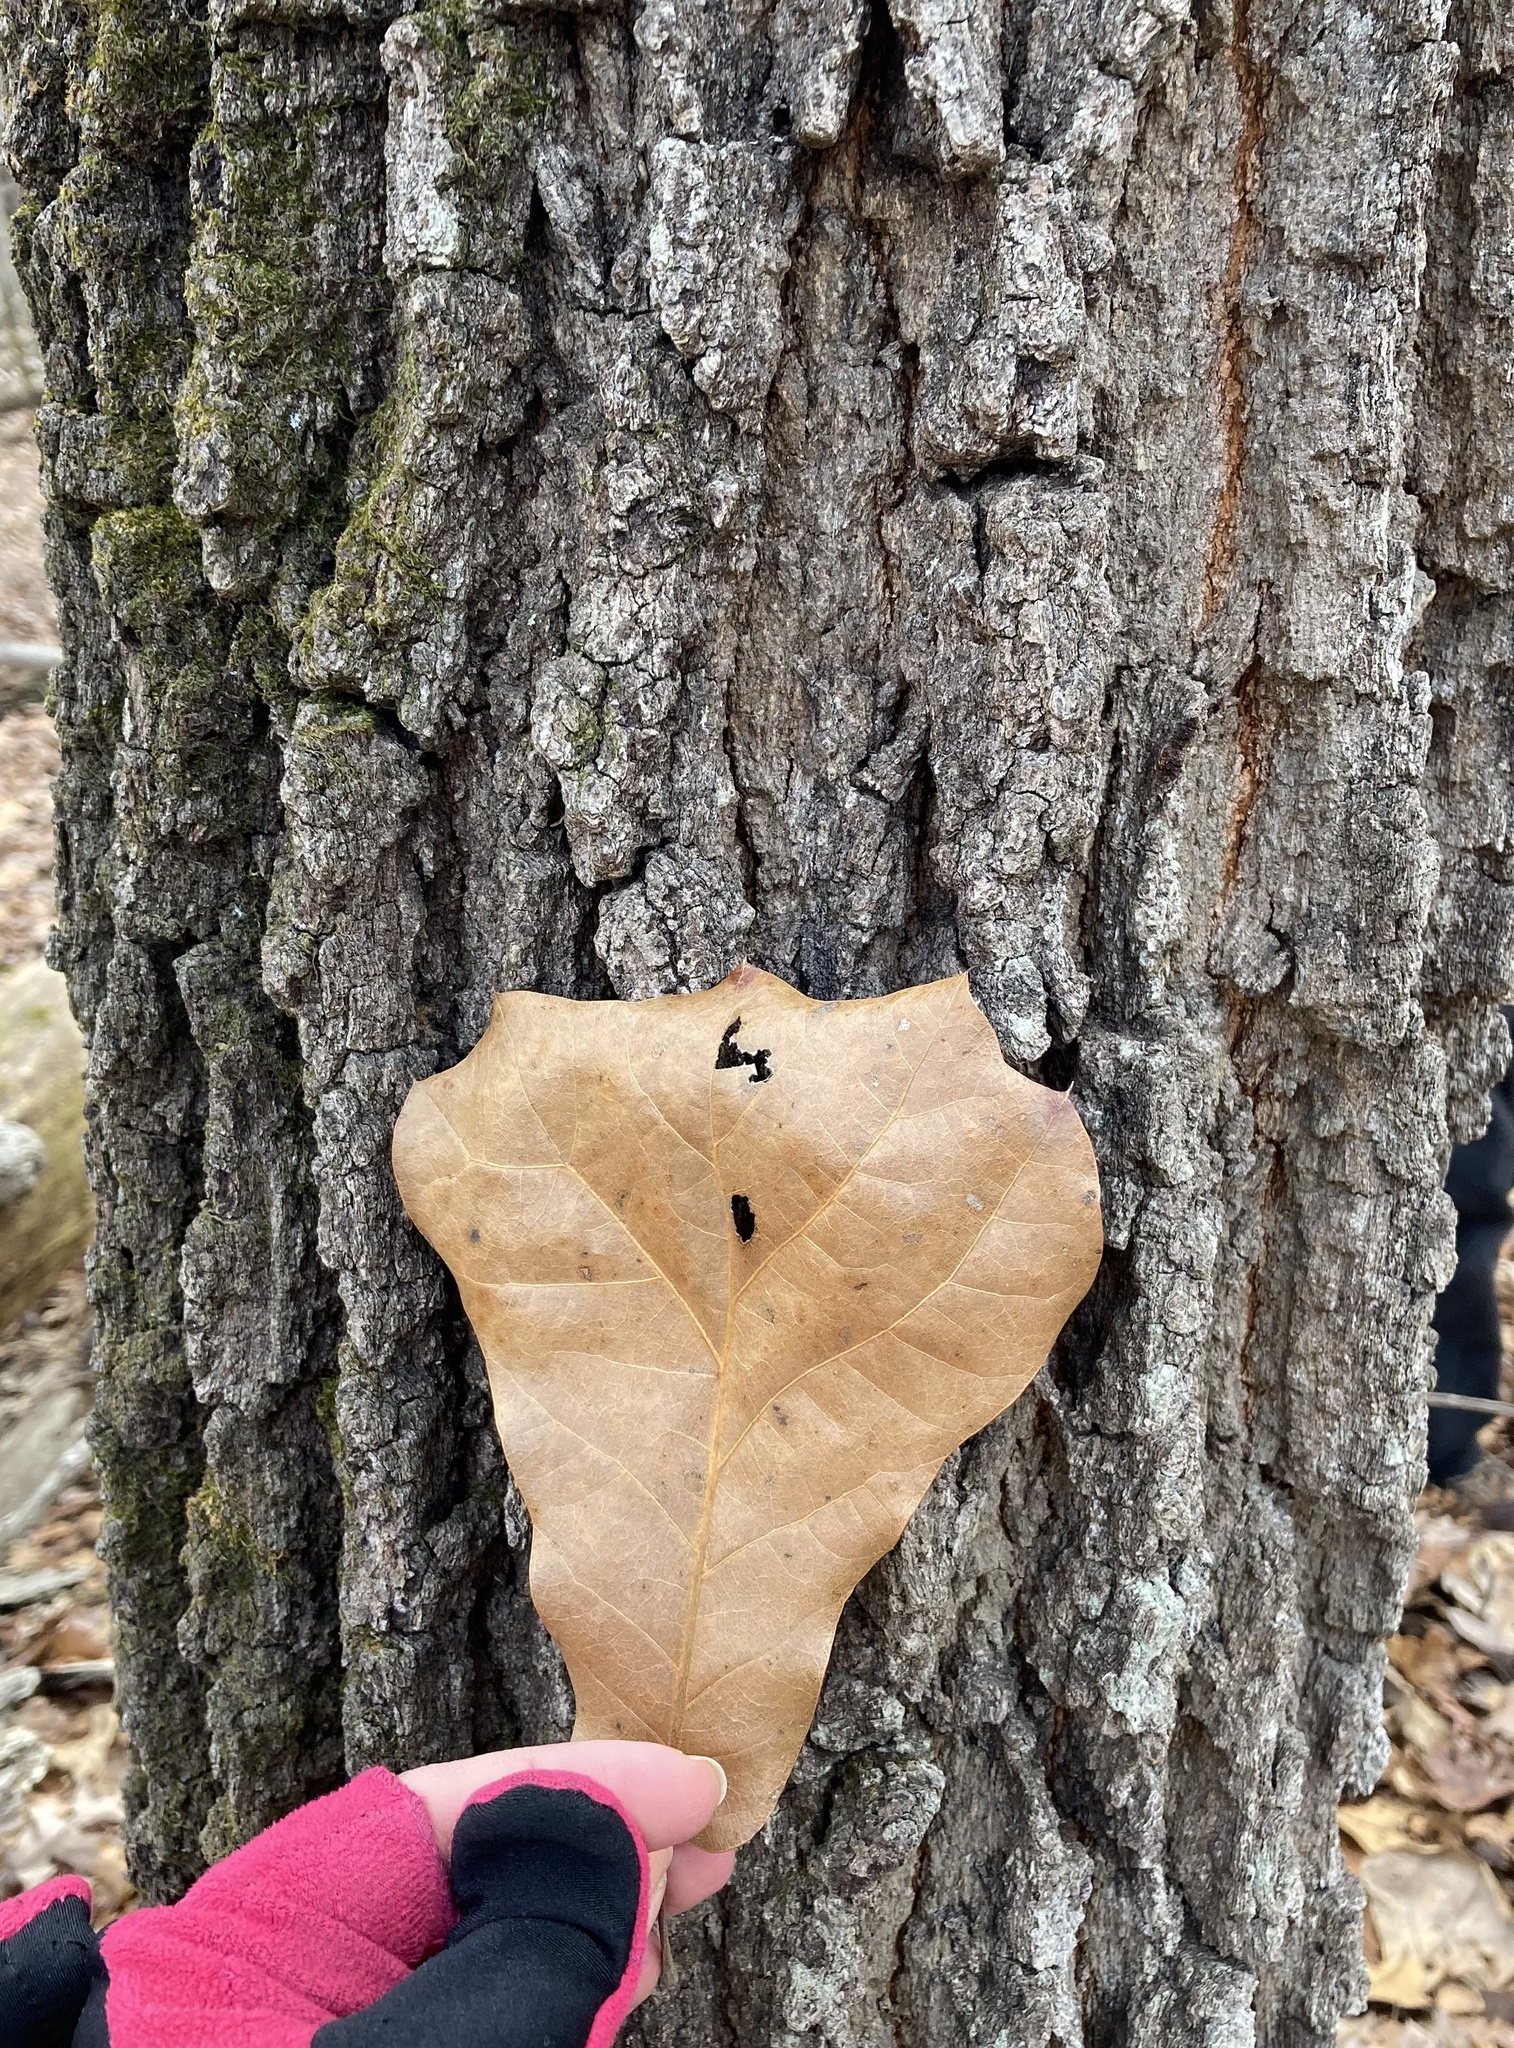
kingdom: Plantae
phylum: Tracheophyta
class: Magnoliopsida
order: Fagales
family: Fagaceae
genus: Quercus
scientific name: Quercus marilandica
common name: Blackjack oak
